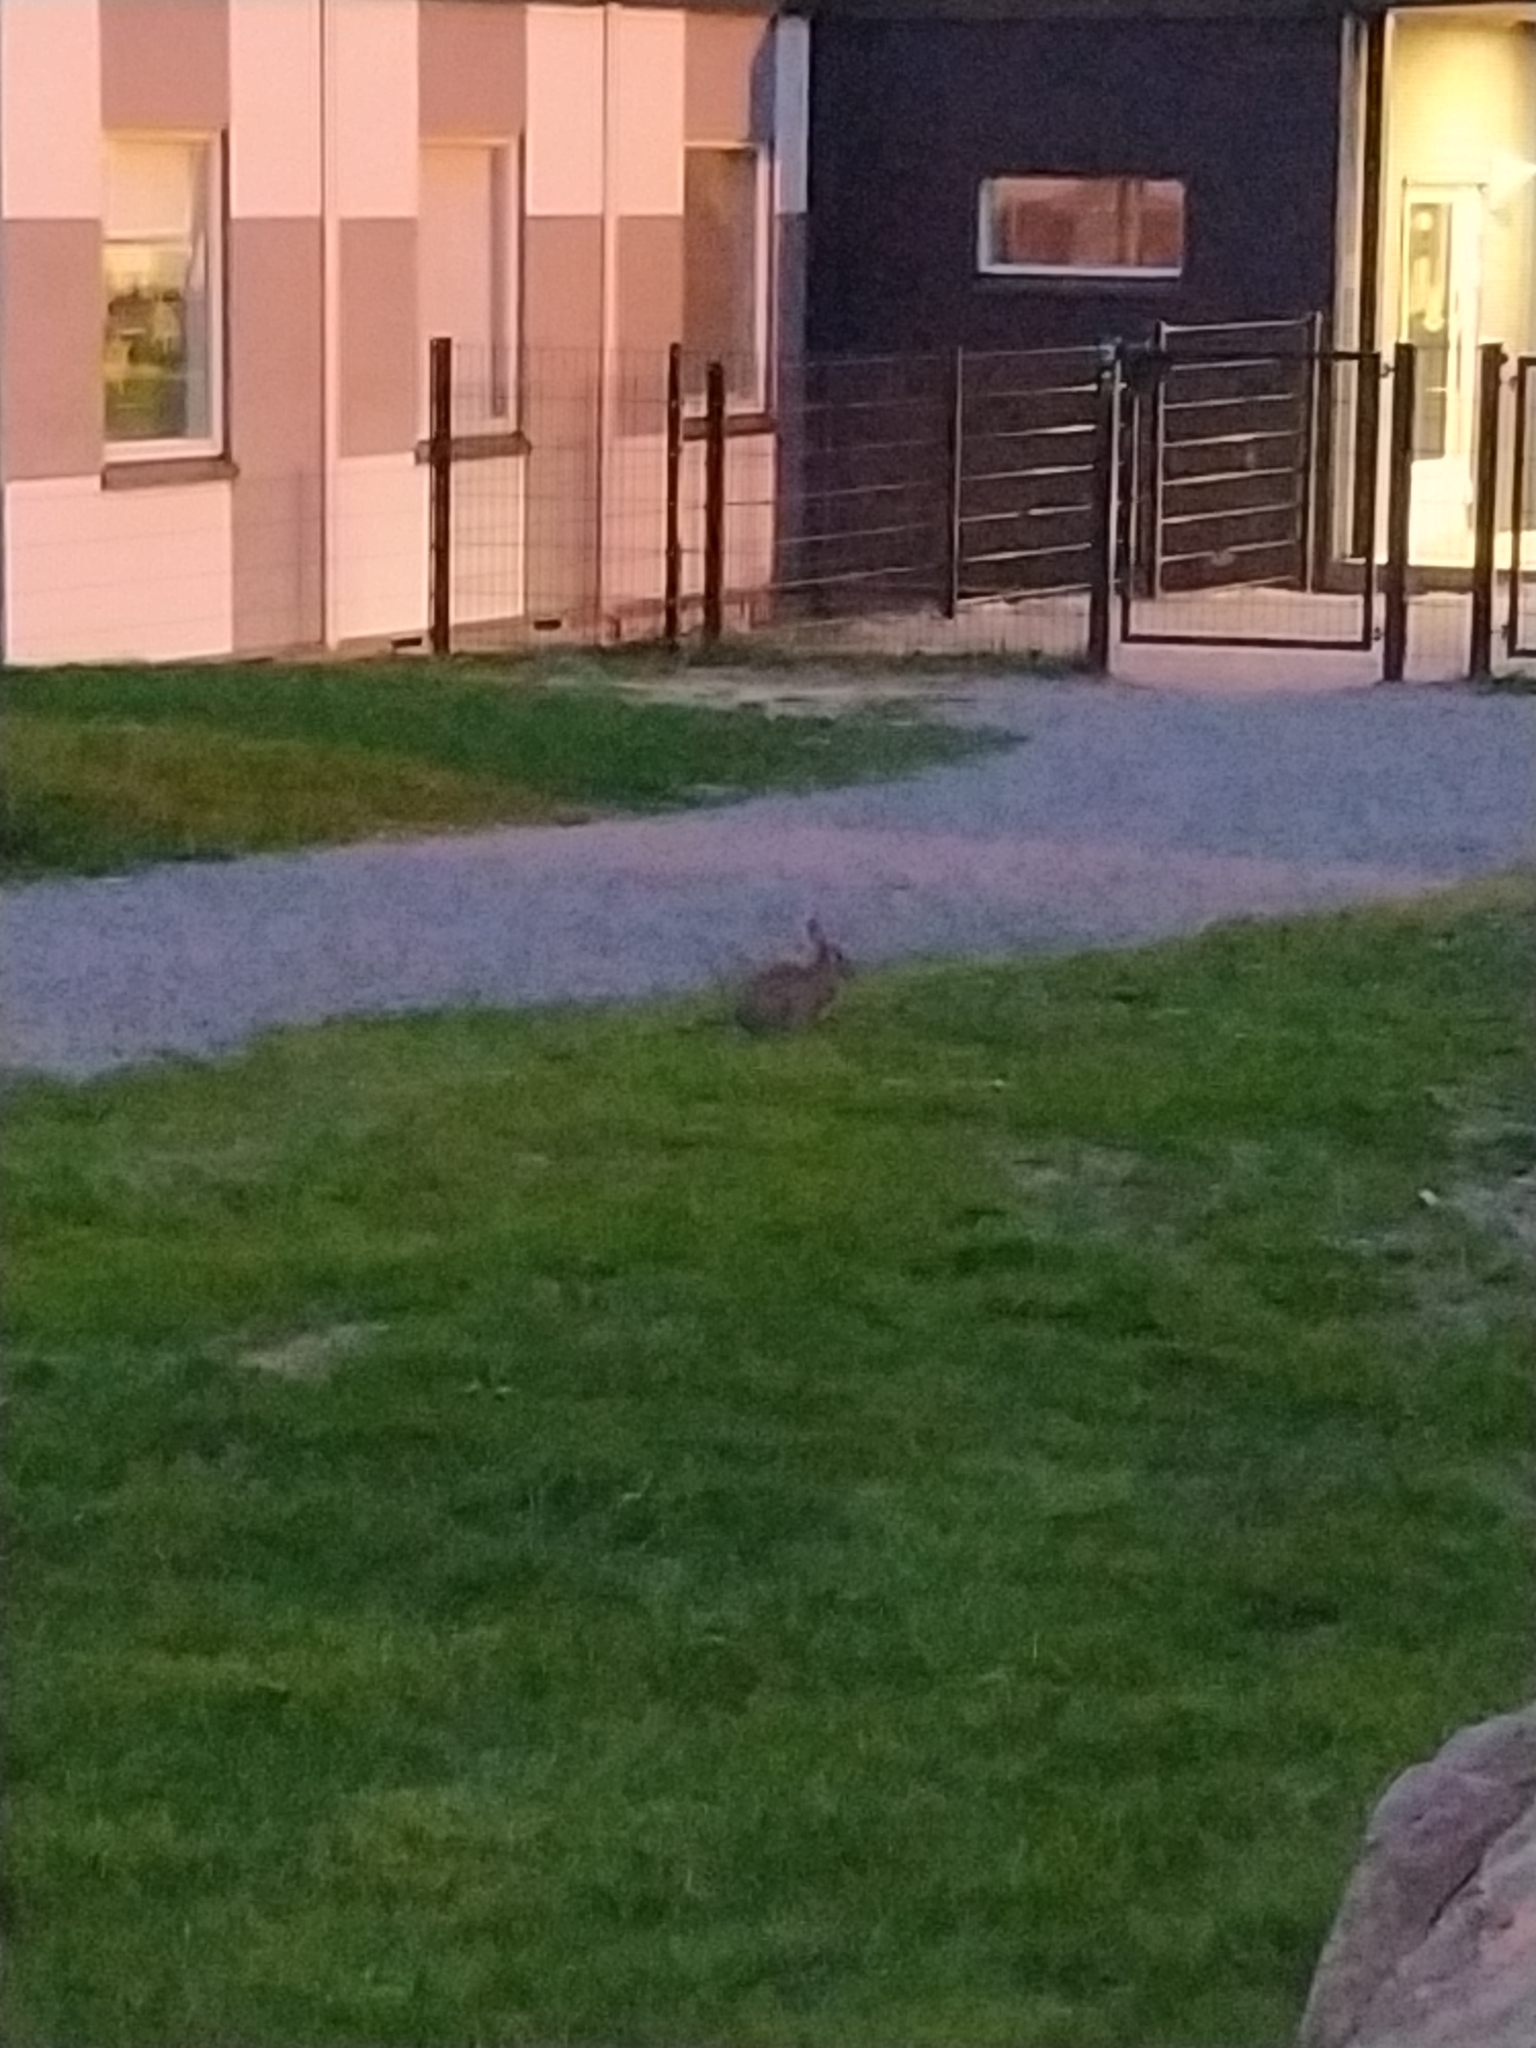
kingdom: Animalia
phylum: Chordata
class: Mammalia
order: Lagomorpha
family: Leporidae
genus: Oryctolagus
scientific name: Oryctolagus cuniculus
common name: European rabbit
